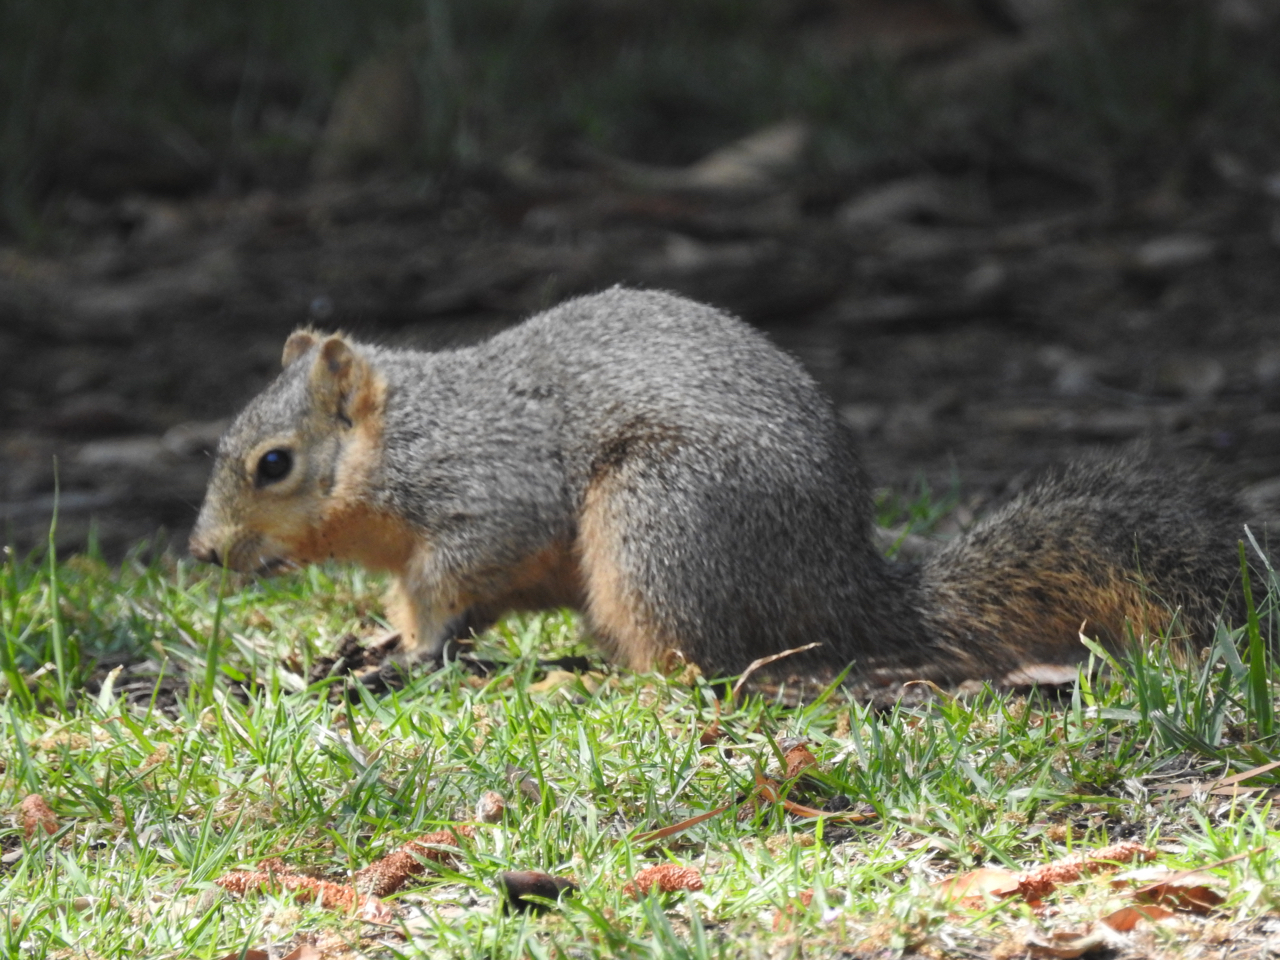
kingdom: Animalia
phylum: Chordata
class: Mammalia
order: Rodentia
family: Sciuridae
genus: Sciurus
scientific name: Sciurus niger
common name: Fox squirrel
